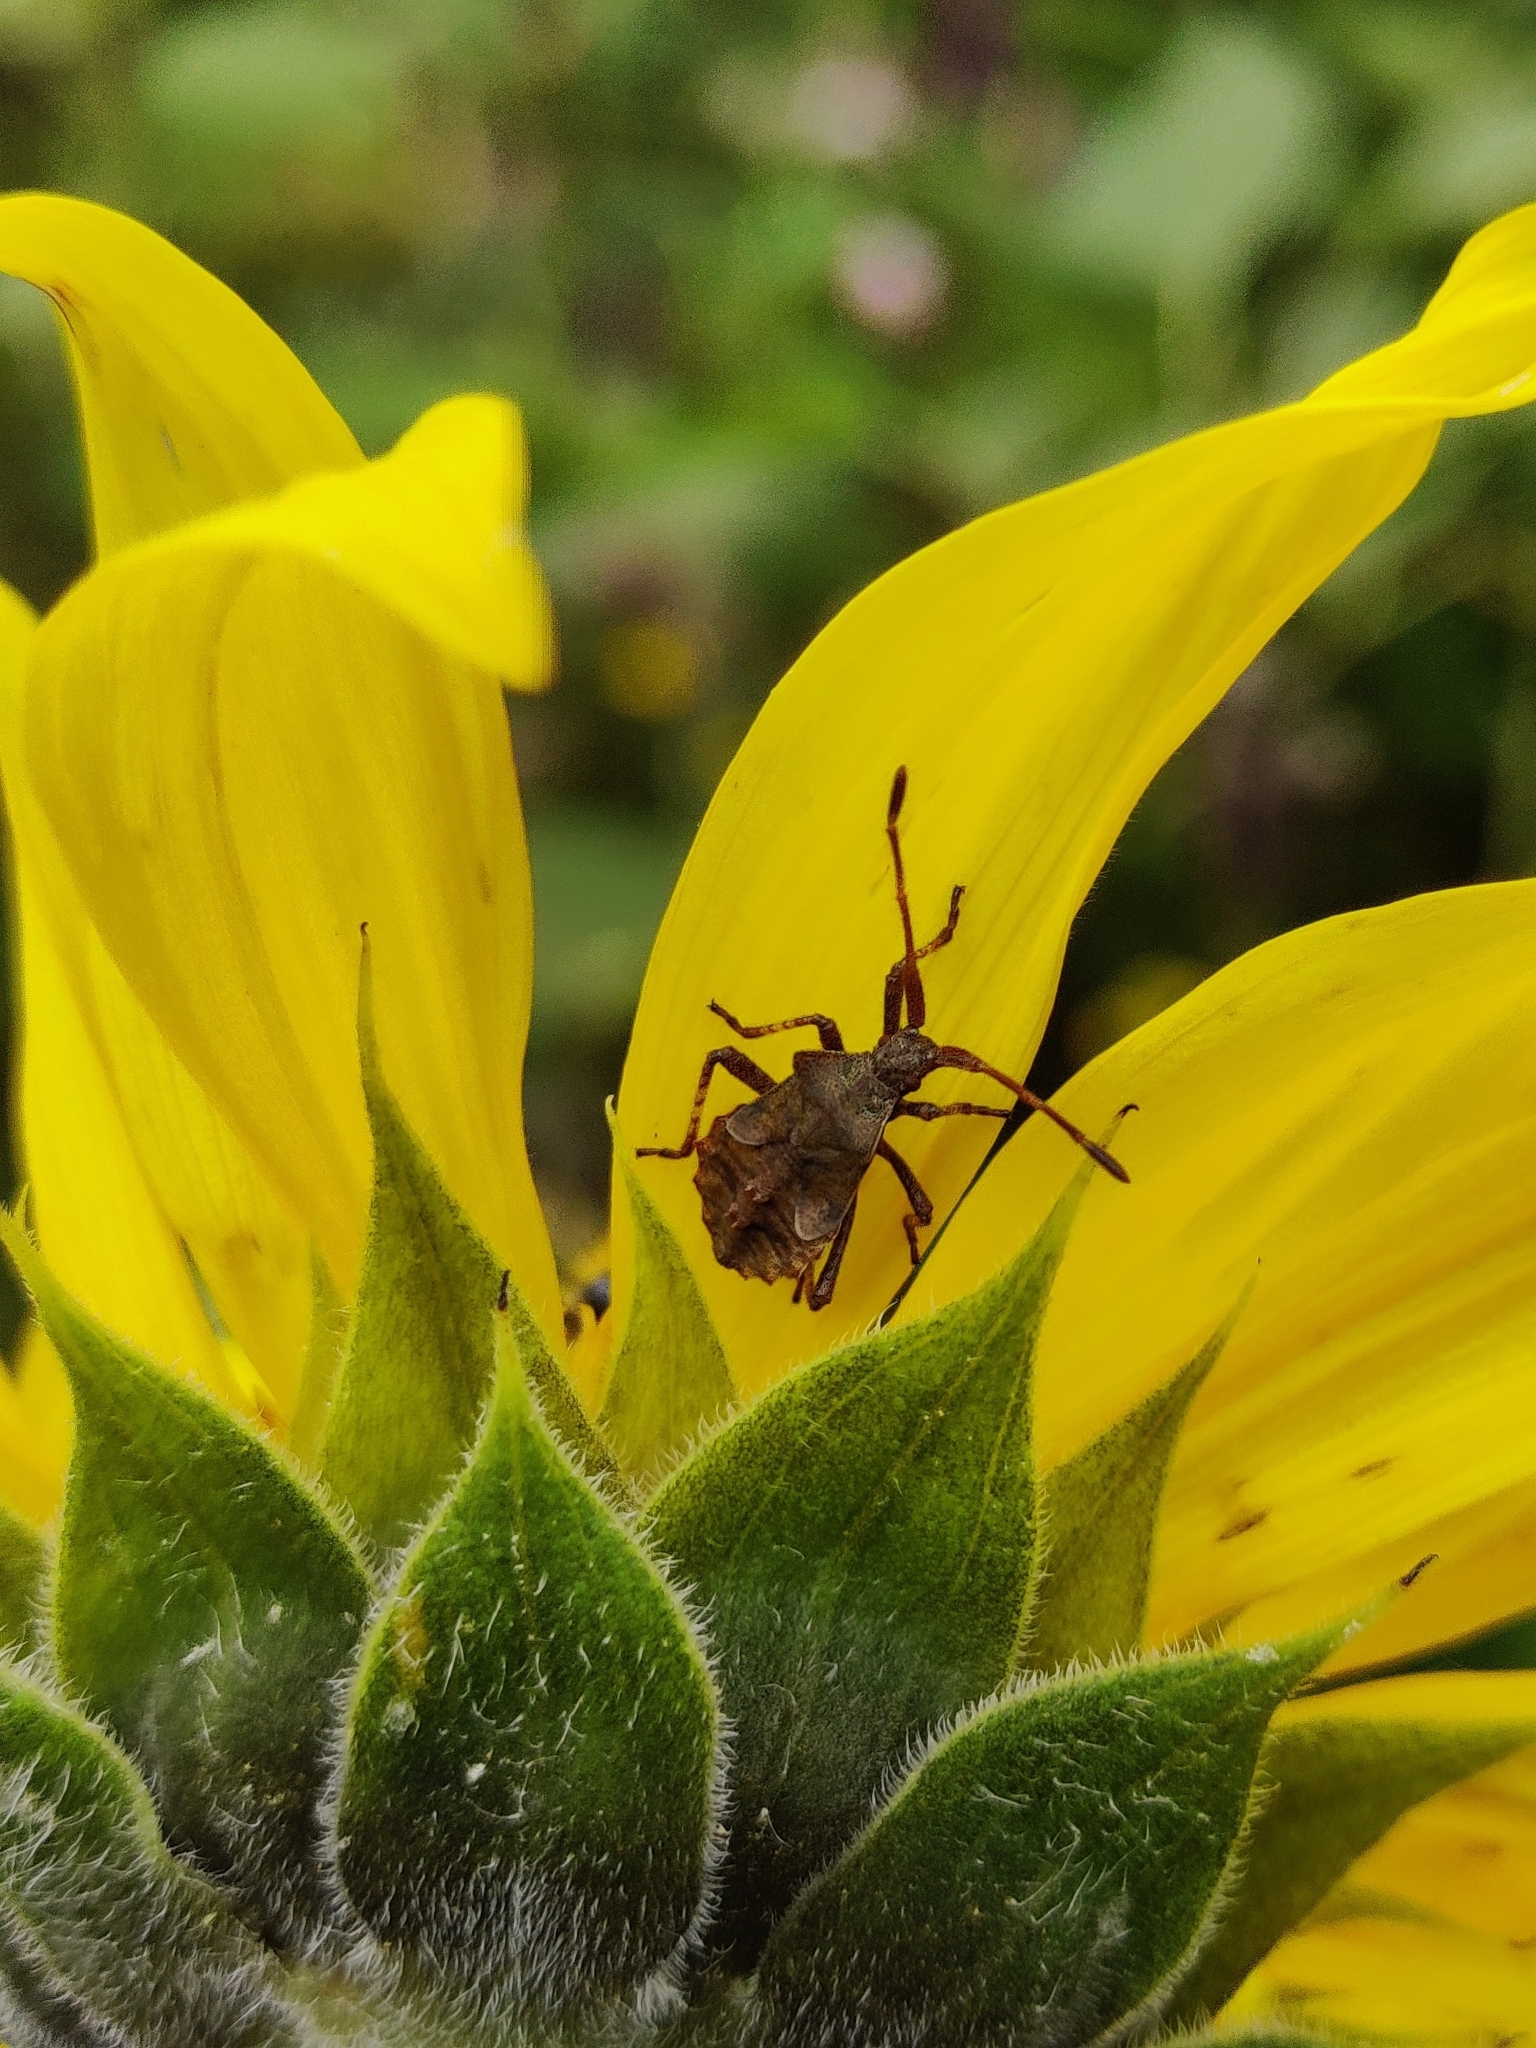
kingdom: Animalia
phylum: Arthropoda
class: Insecta
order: Hemiptera
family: Coreidae
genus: Coreus
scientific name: Coreus marginatus
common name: Dock bug
